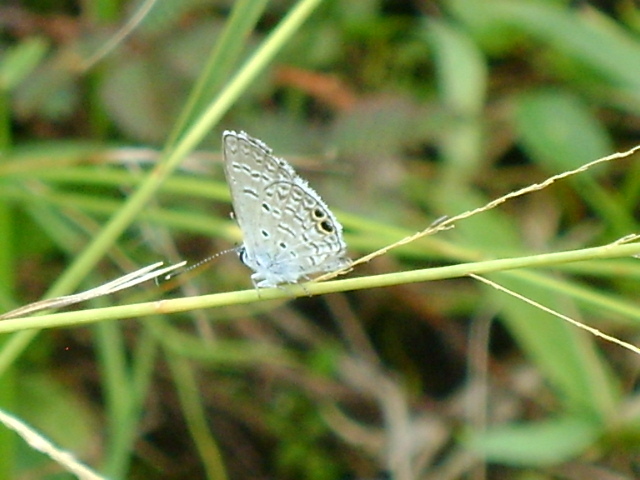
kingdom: Animalia
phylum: Arthropoda
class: Insecta
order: Lepidoptera
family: Lycaenidae
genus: Hemiargus
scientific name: Hemiargus ceraunus
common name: Ceraunus blue
